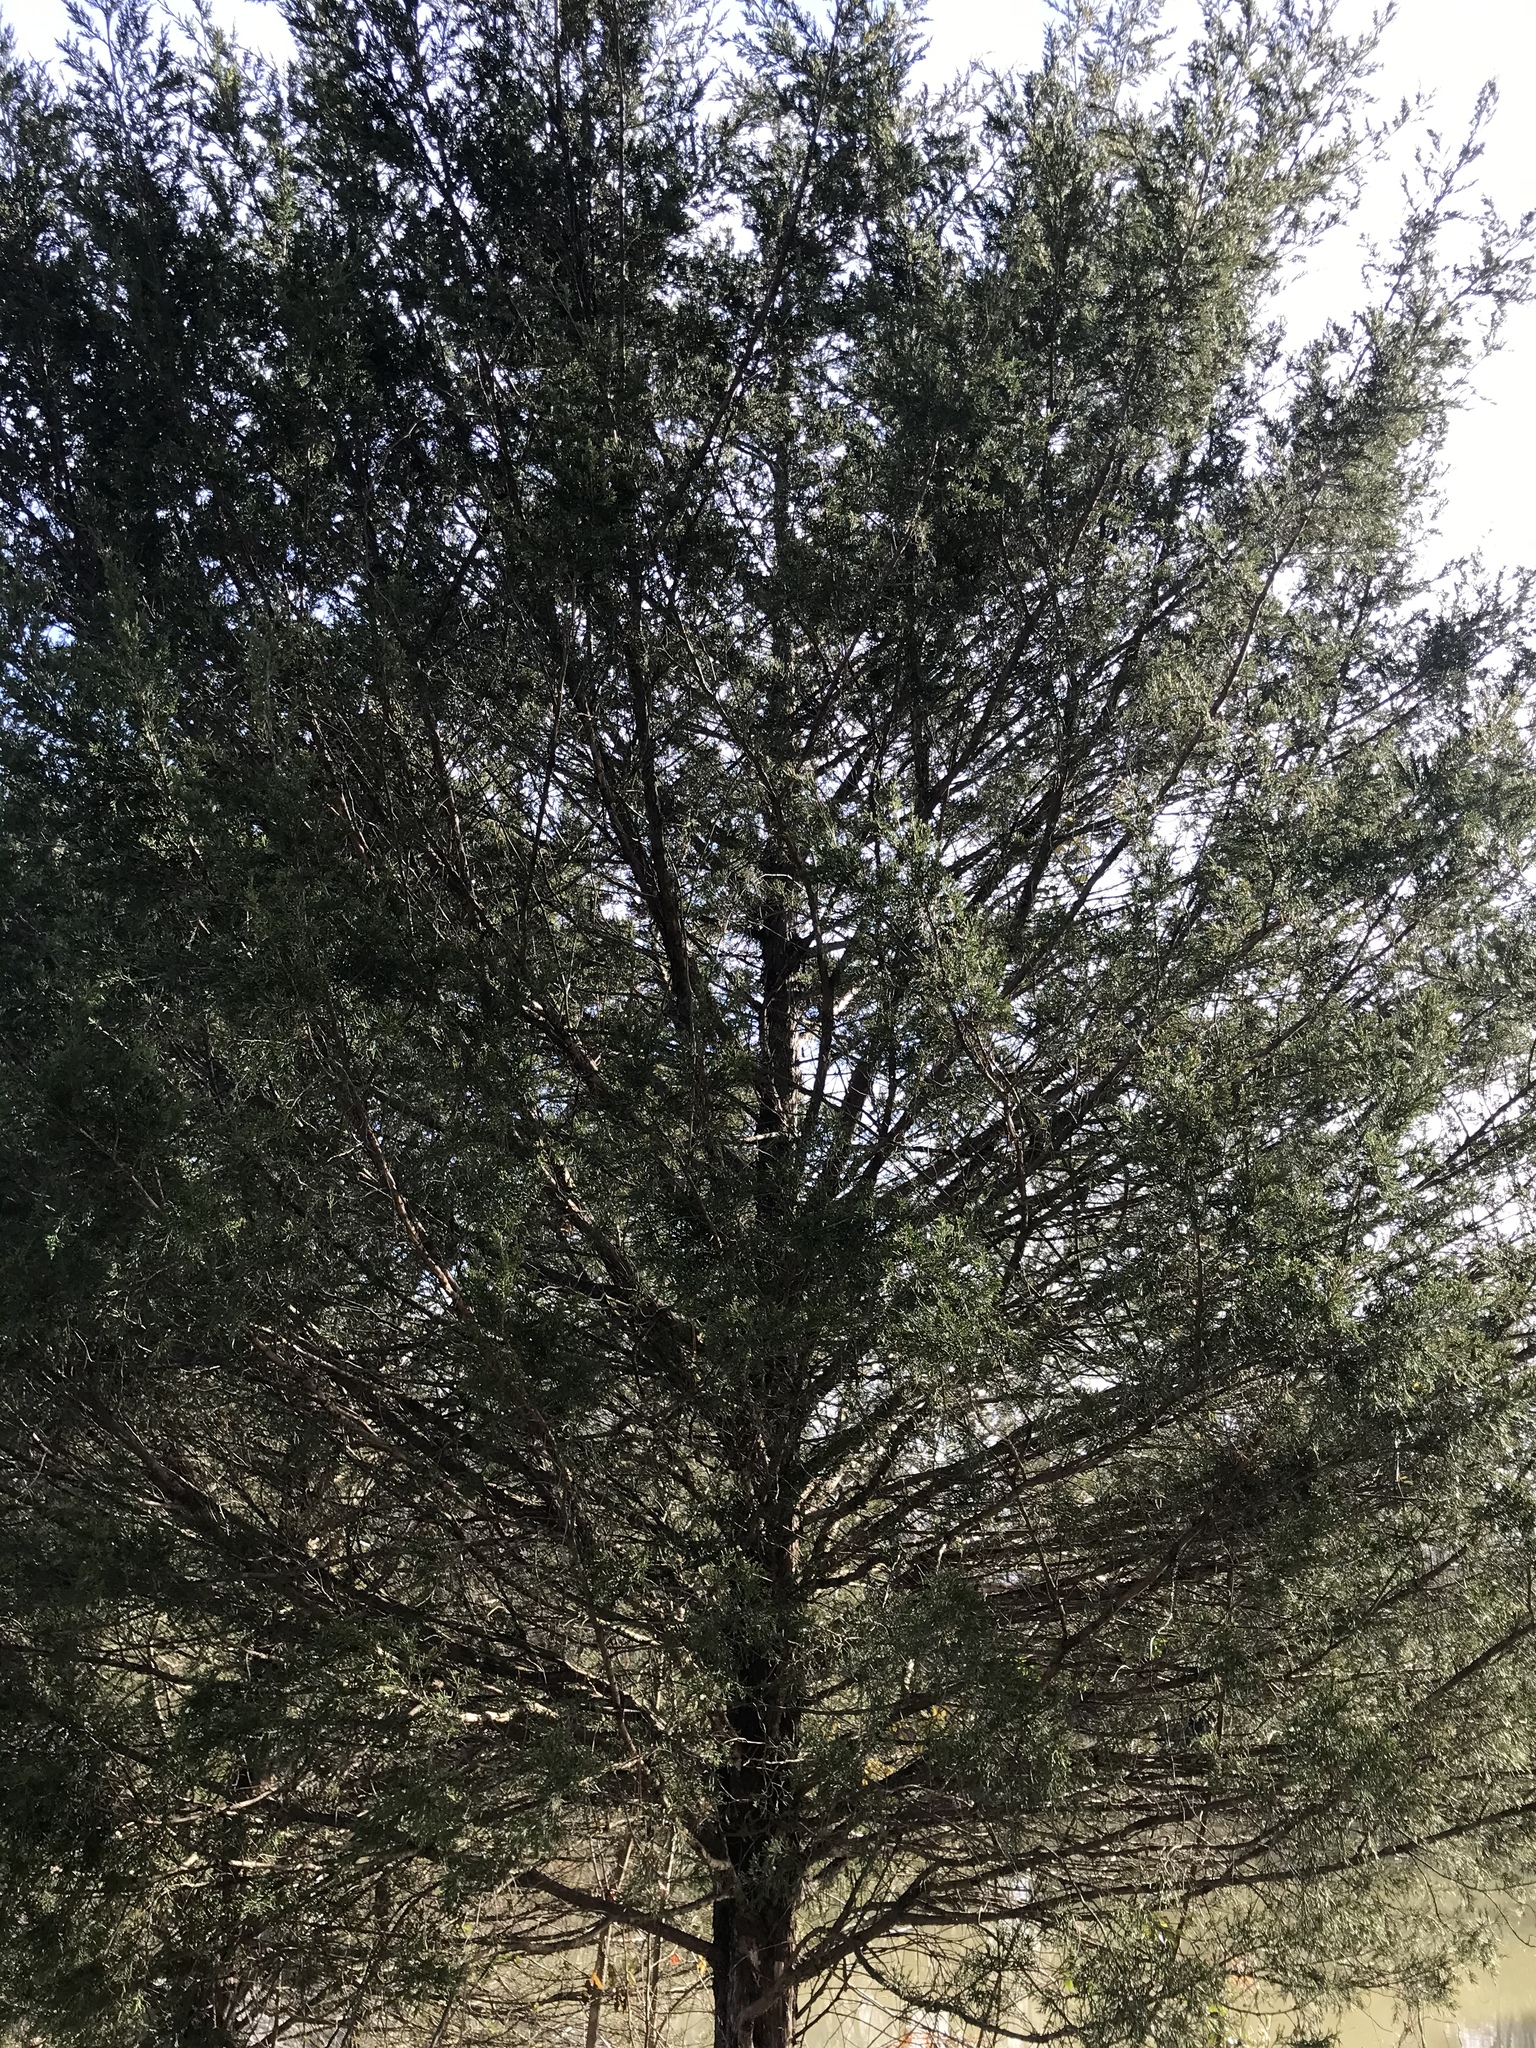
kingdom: Plantae
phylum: Tracheophyta
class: Pinopsida
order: Pinales
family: Cupressaceae
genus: Juniperus
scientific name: Juniperus virginiana
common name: Red juniper
